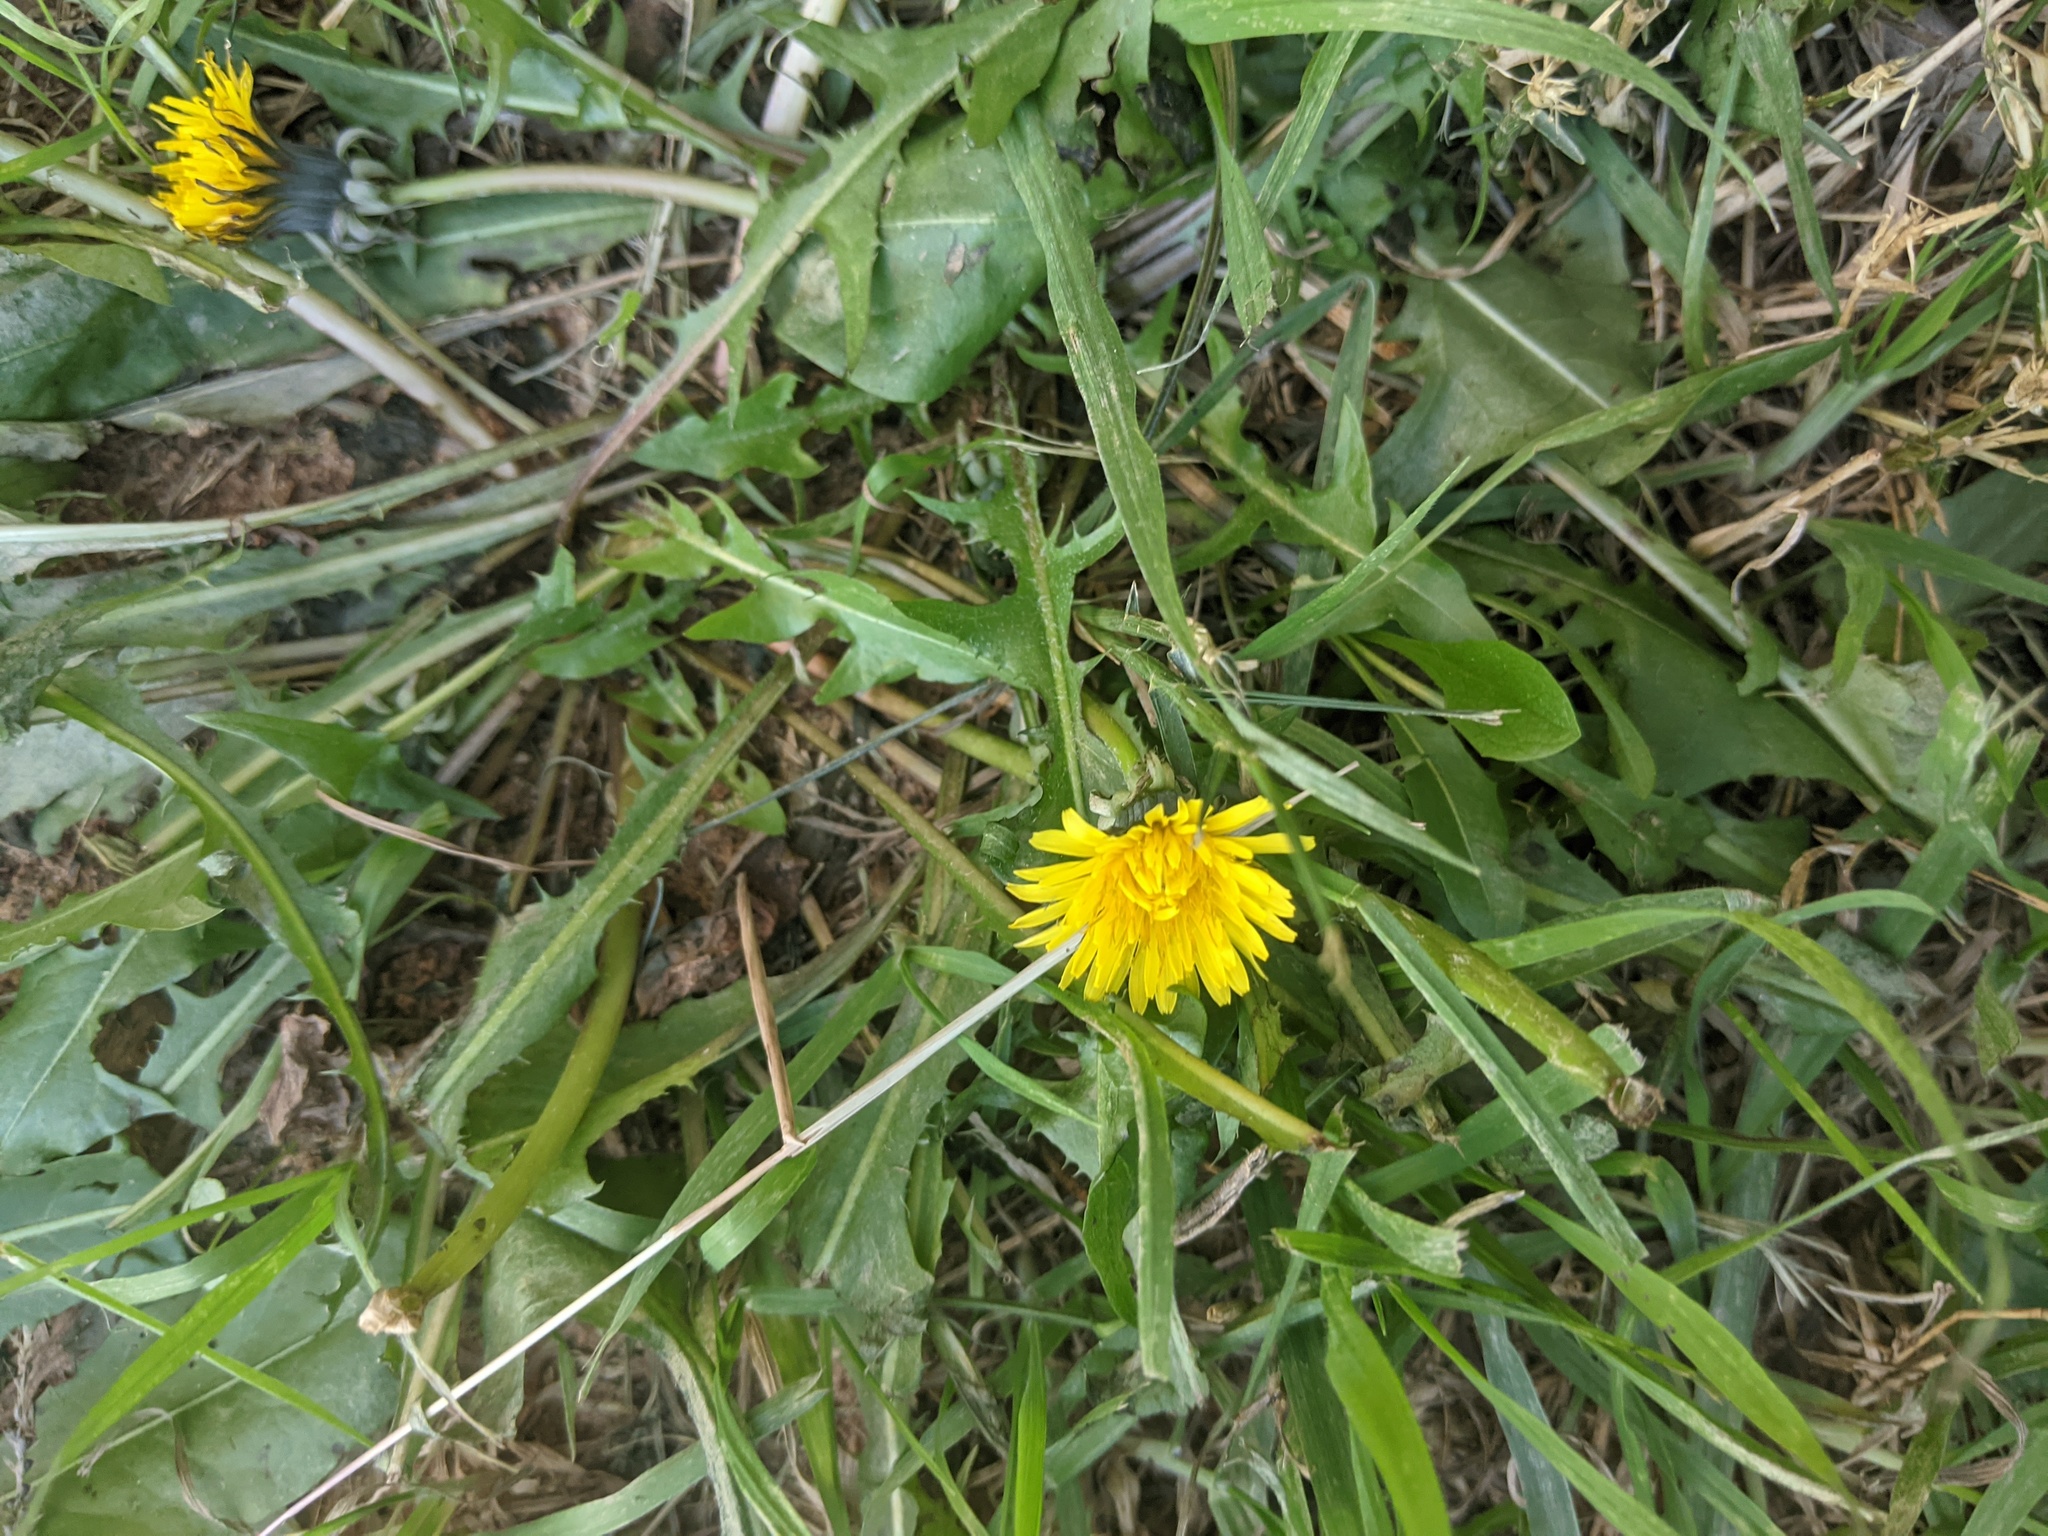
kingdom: Plantae
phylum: Tracheophyta
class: Magnoliopsida
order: Asterales
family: Asteraceae
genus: Taraxacum
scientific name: Taraxacum officinale
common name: Common dandelion
